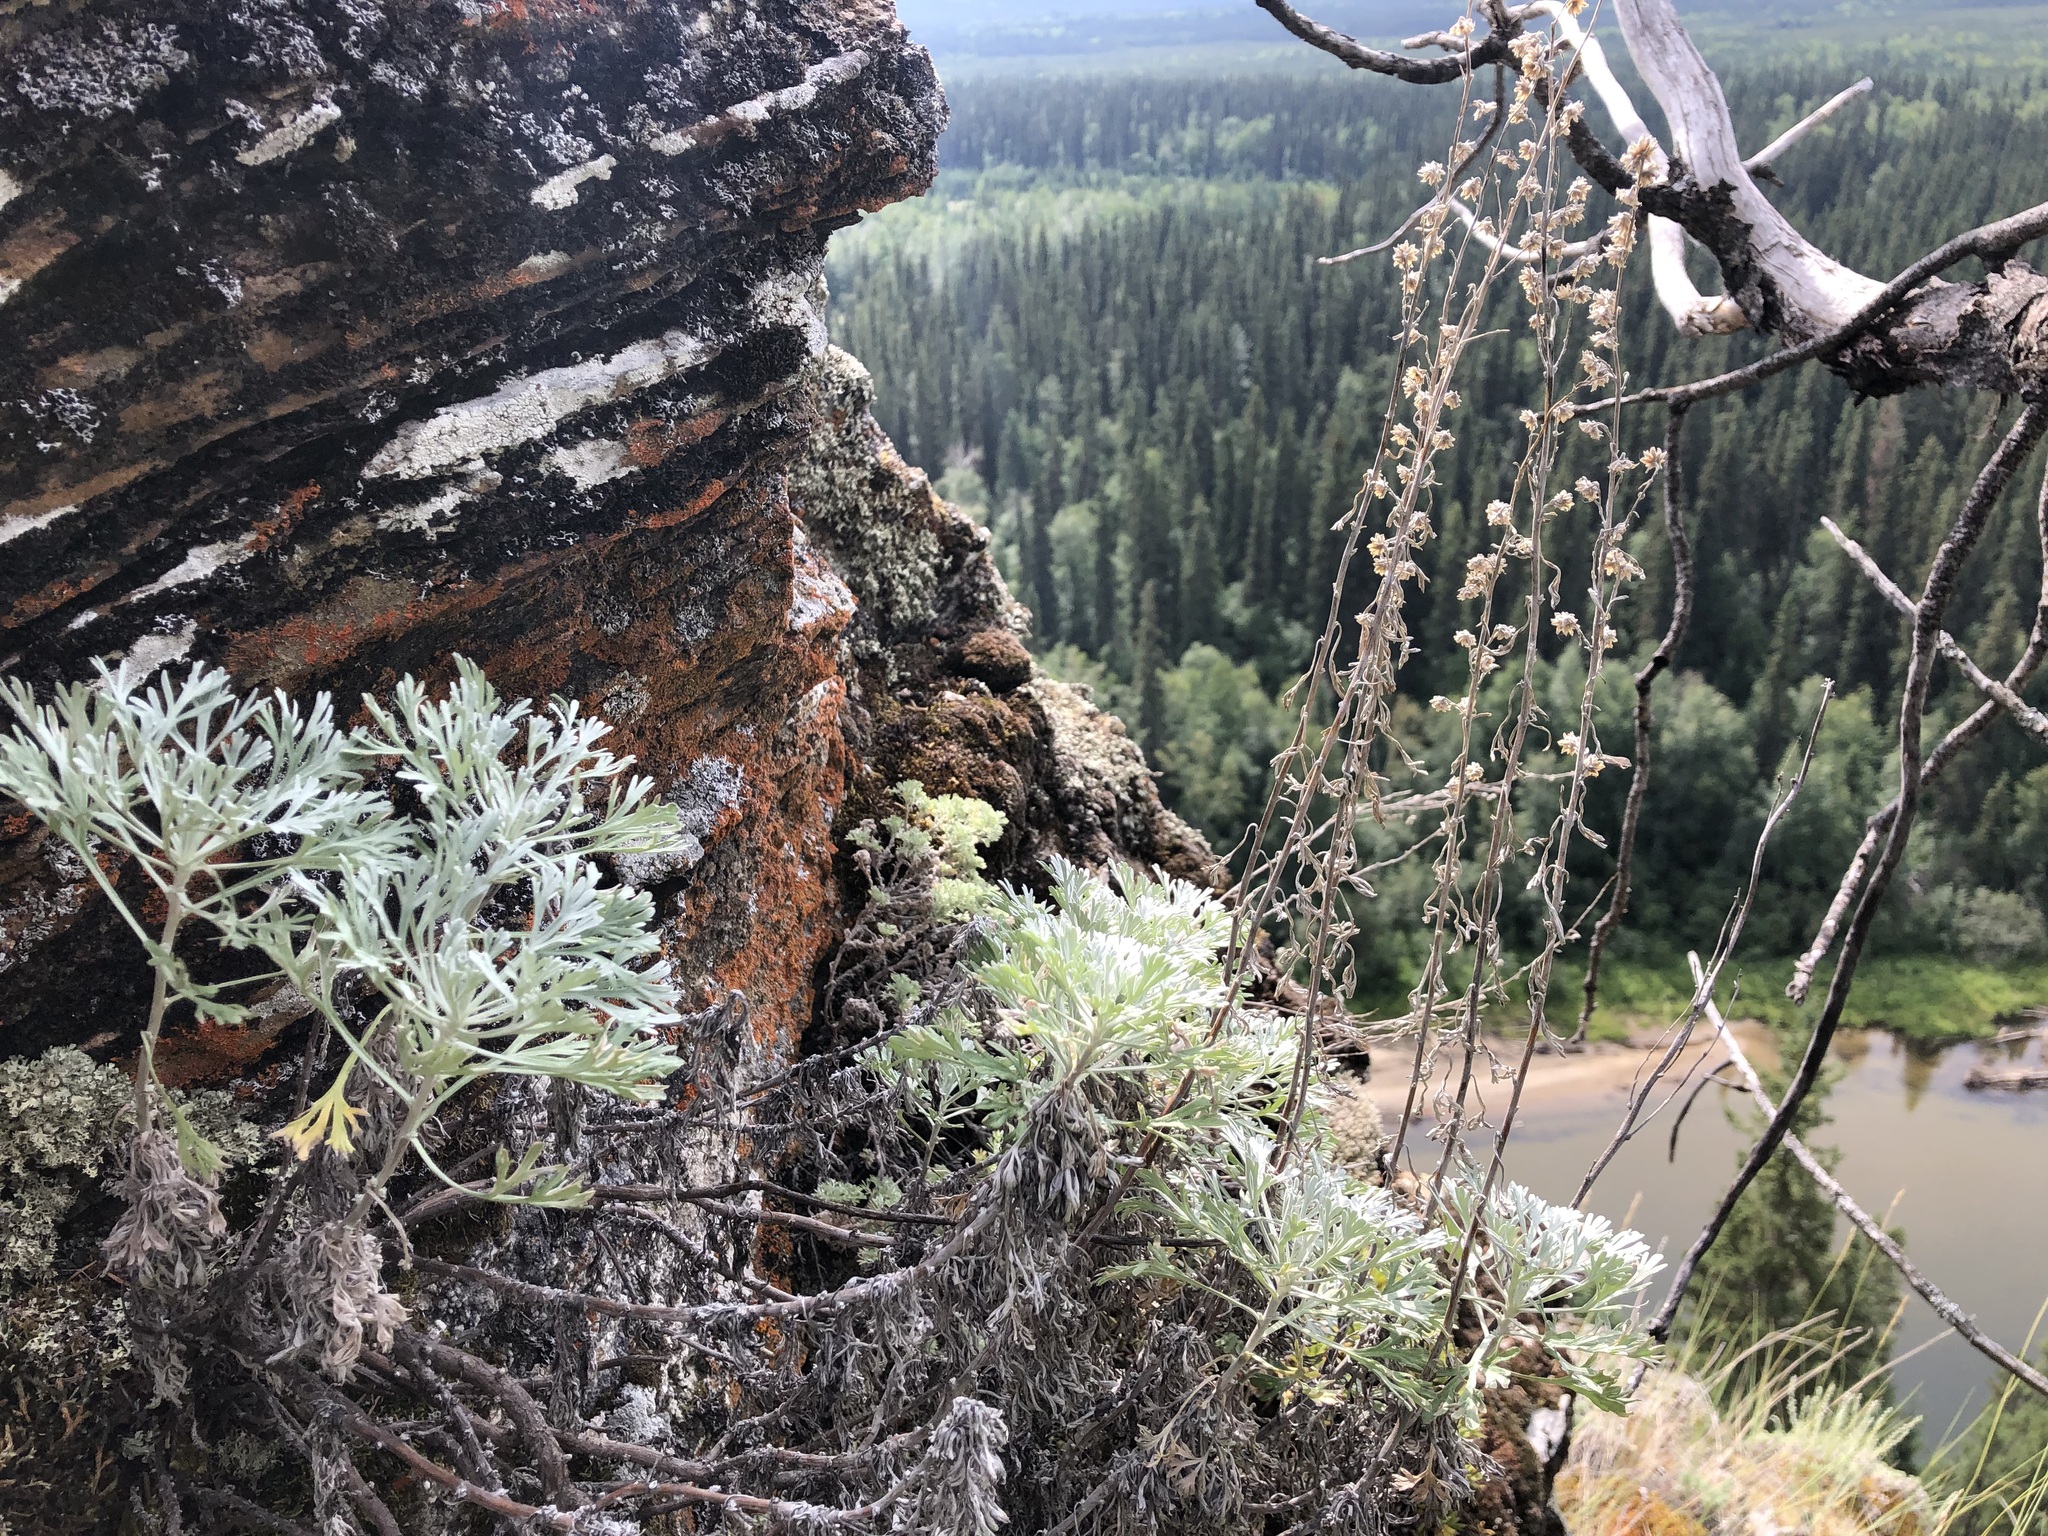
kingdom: Plantae
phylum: Tracheophyta
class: Magnoliopsida
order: Asterales
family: Asteraceae
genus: Artemisia
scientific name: Artemisia kruhsiana
